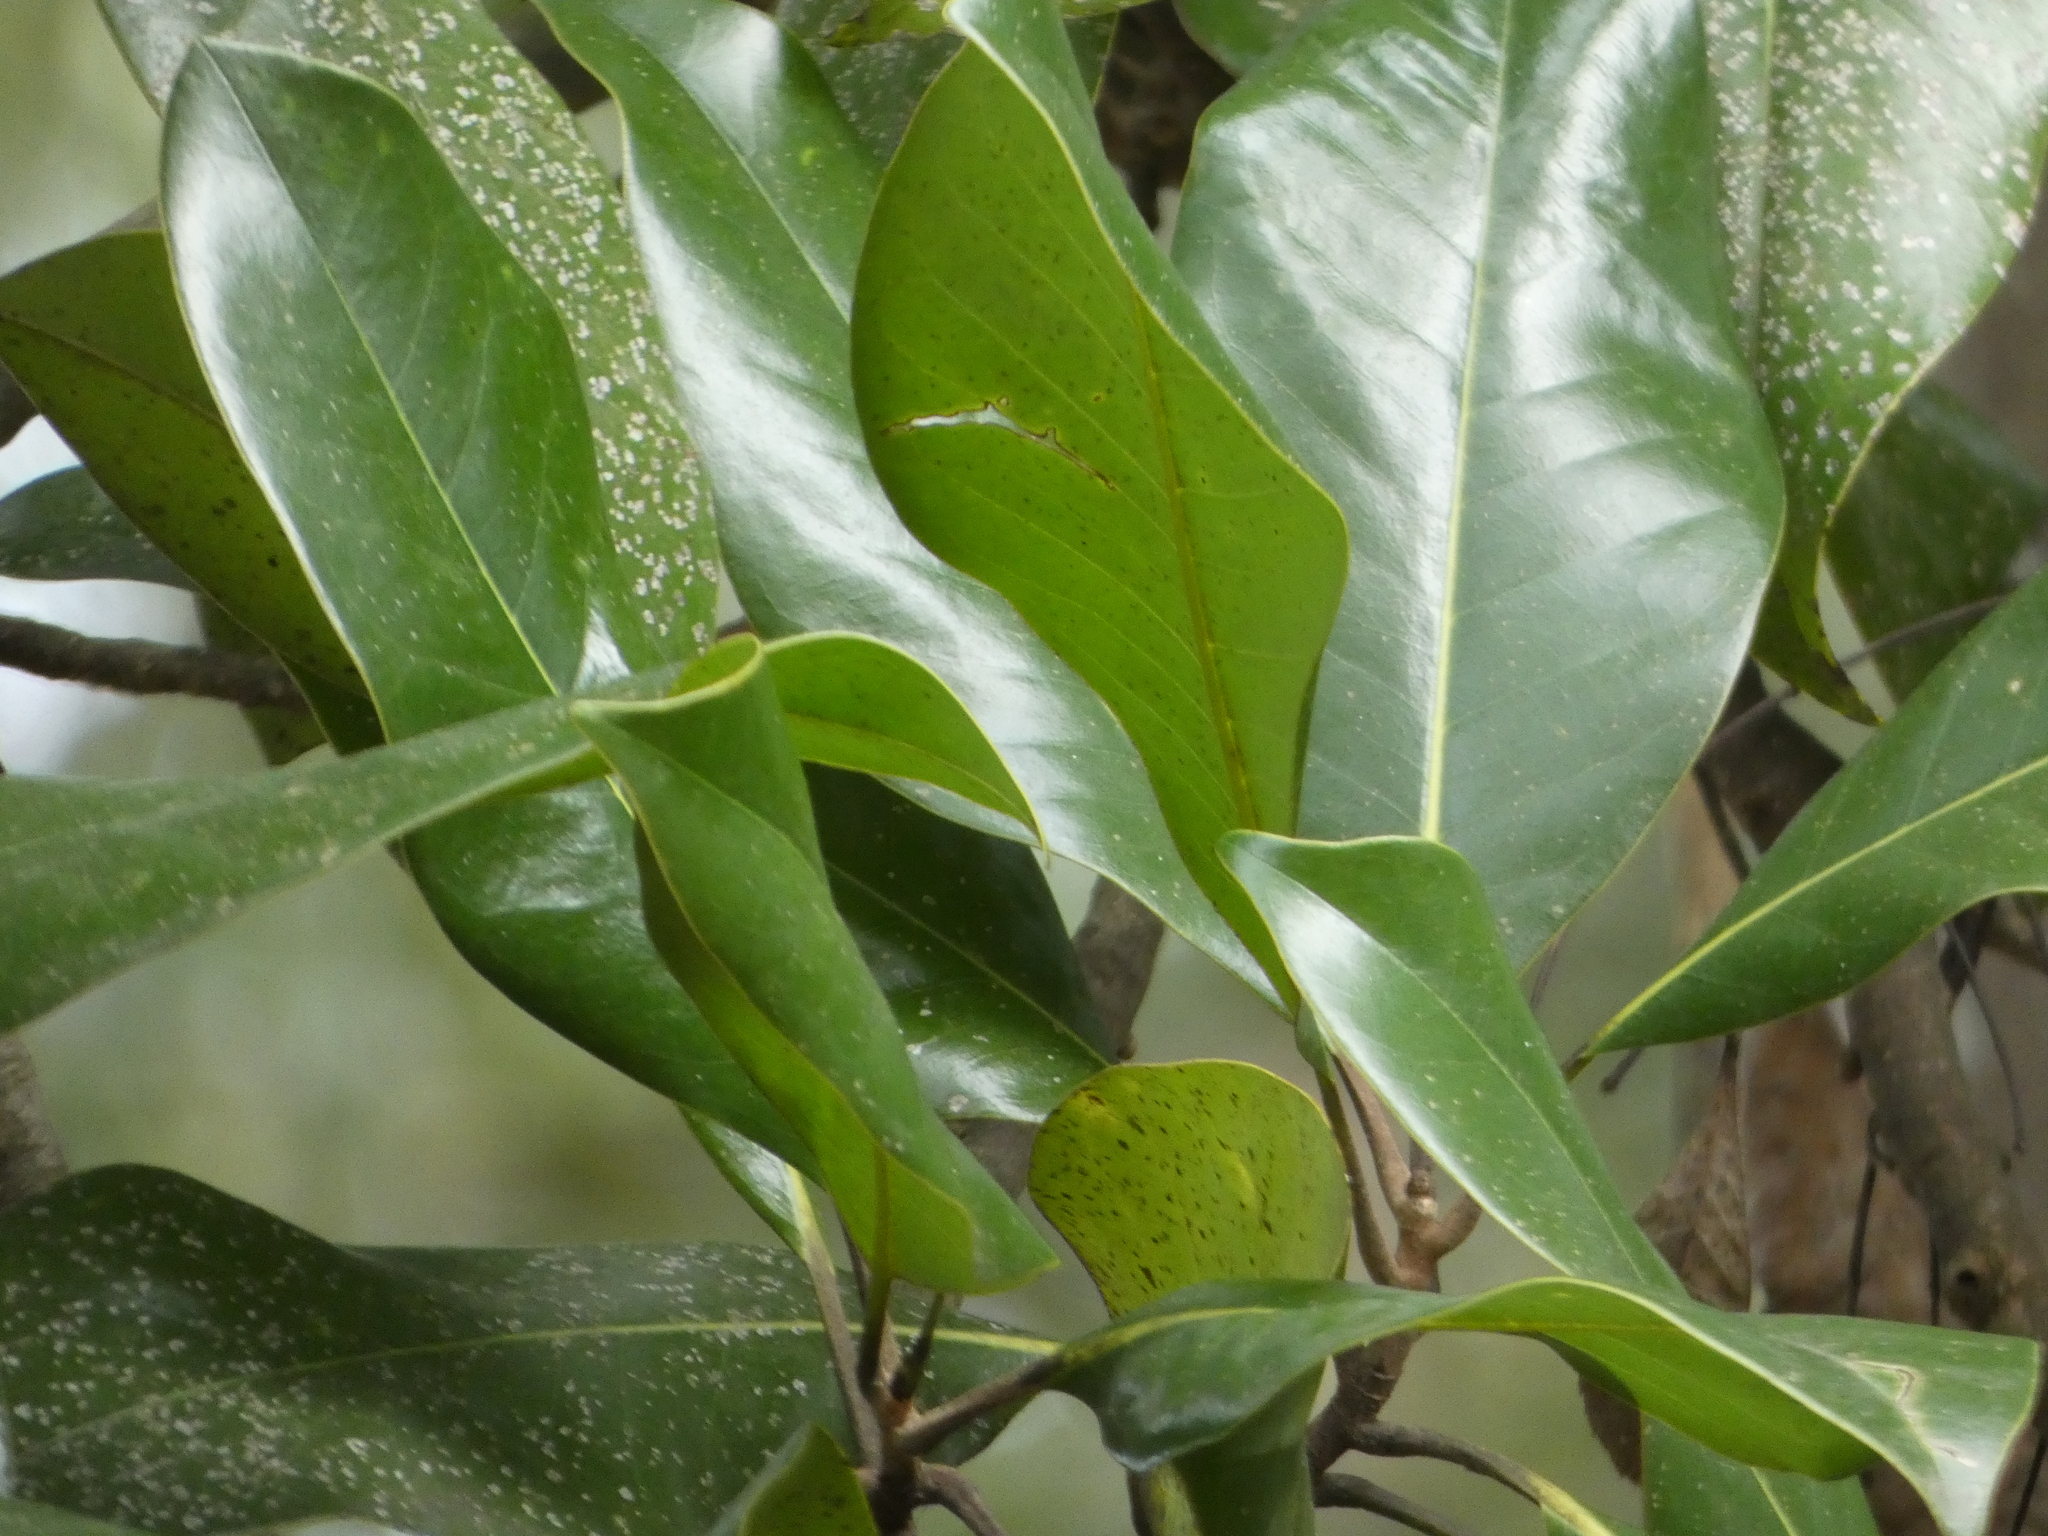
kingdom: Plantae
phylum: Tracheophyta
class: Magnoliopsida
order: Magnoliales
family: Magnoliaceae
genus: Magnolia
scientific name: Magnolia grandiflora
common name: Southern magnolia
